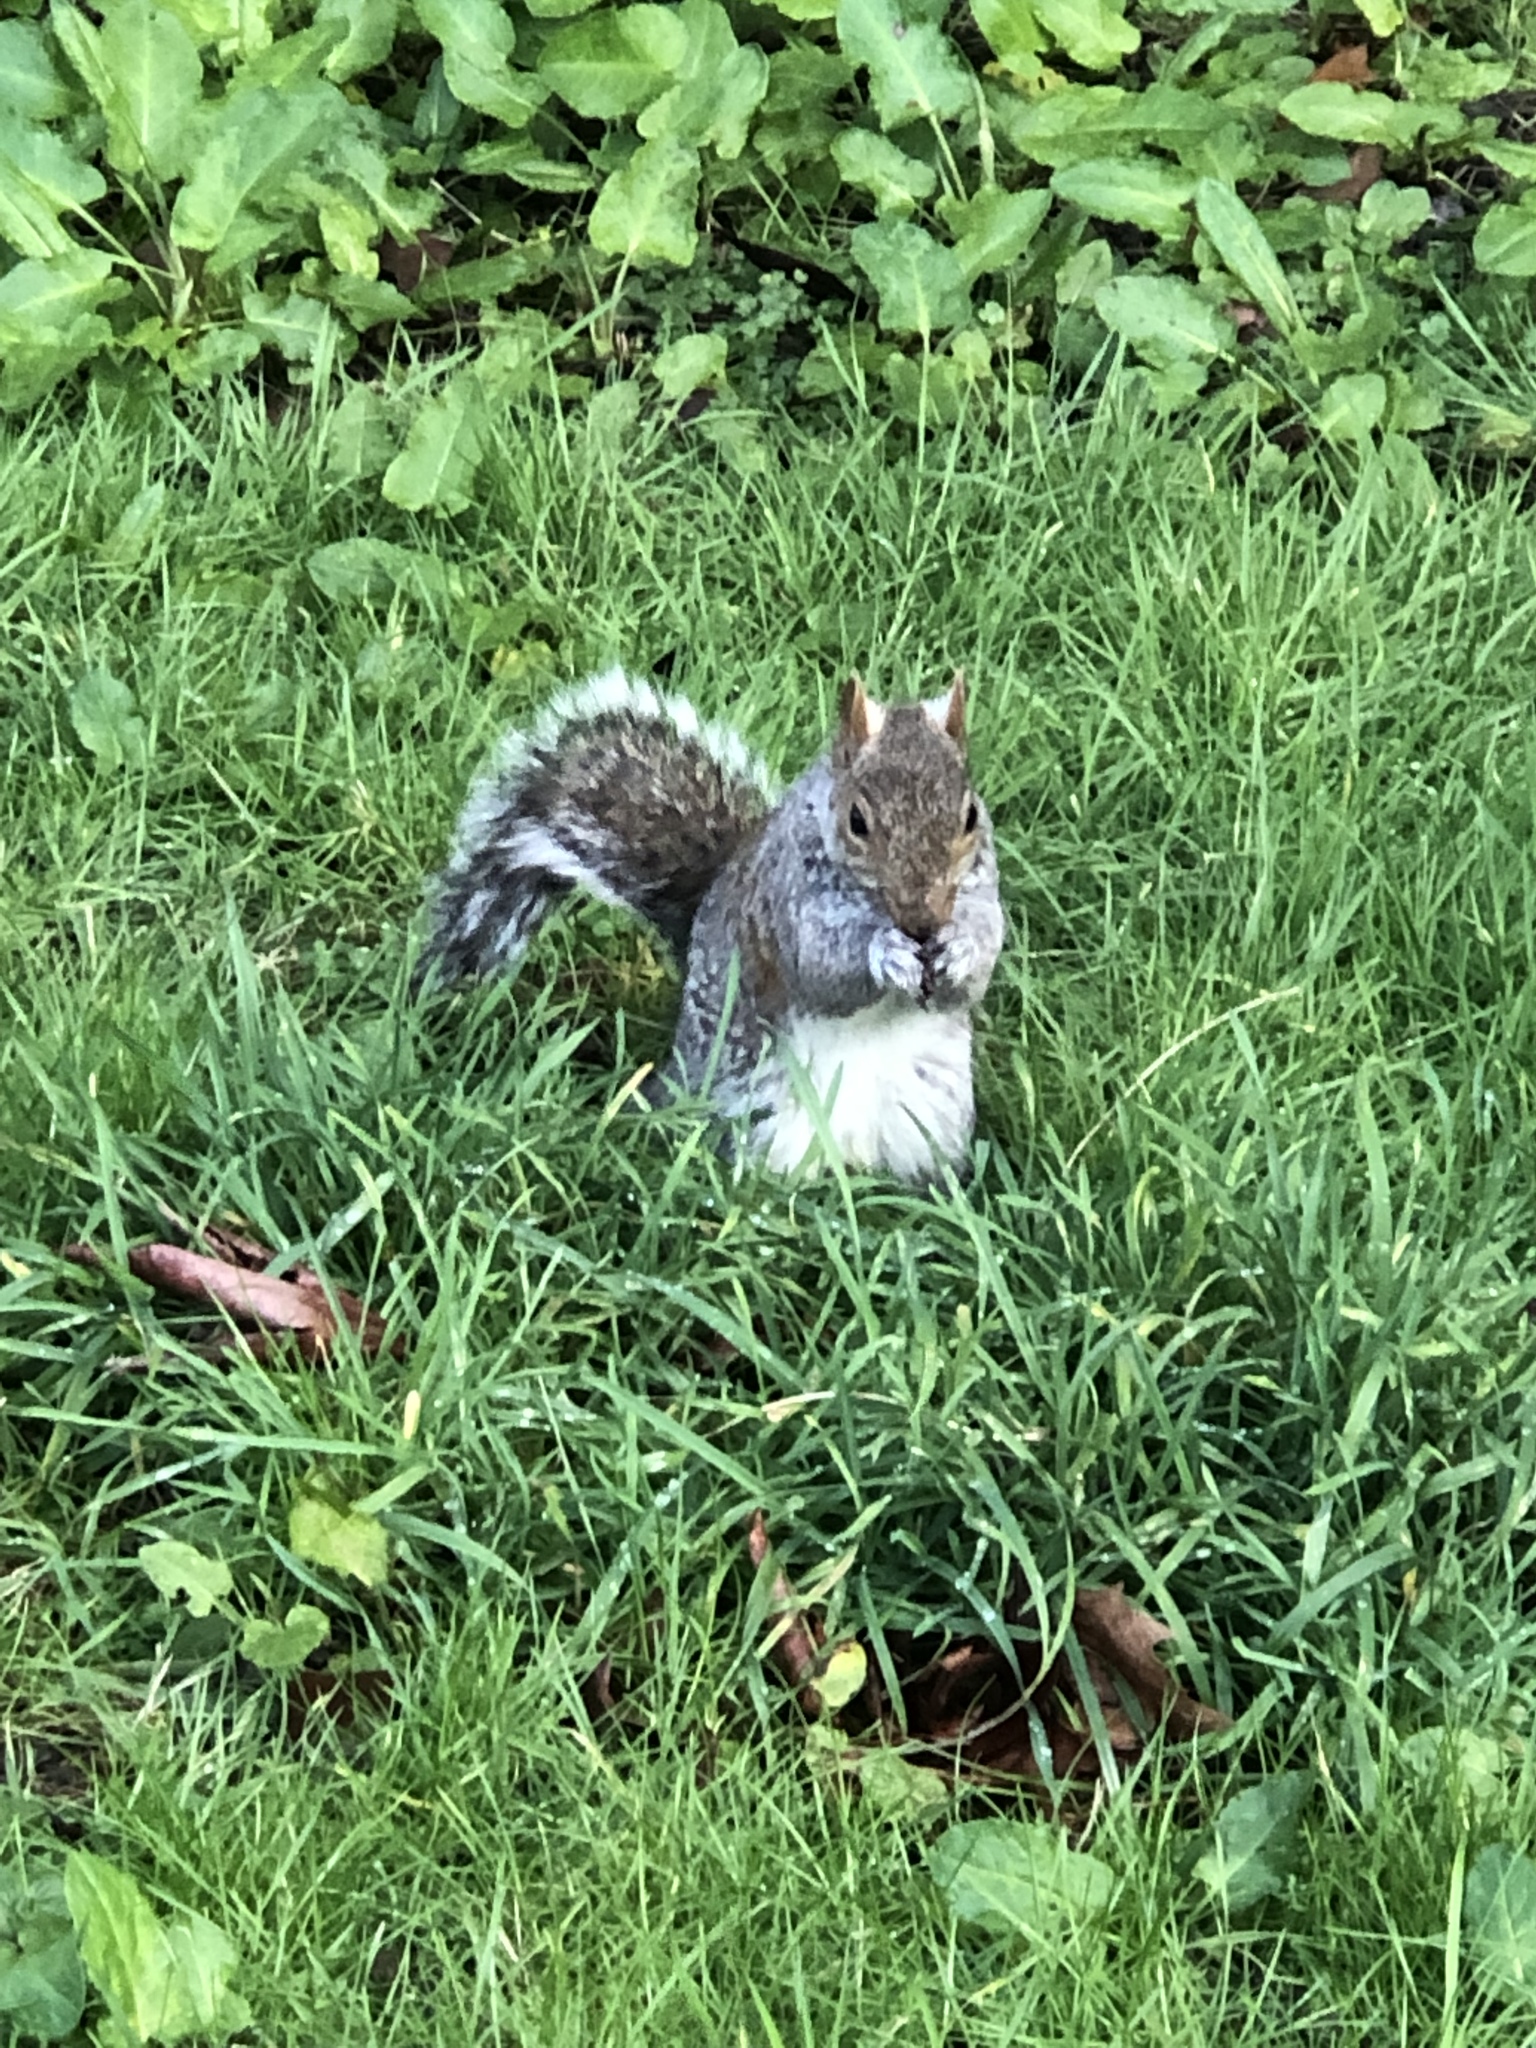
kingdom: Animalia
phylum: Chordata
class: Mammalia
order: Rodentia
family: Sciuridae
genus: Sciurus
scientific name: Sciurus carolinensis
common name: Eastern gray squirrel
